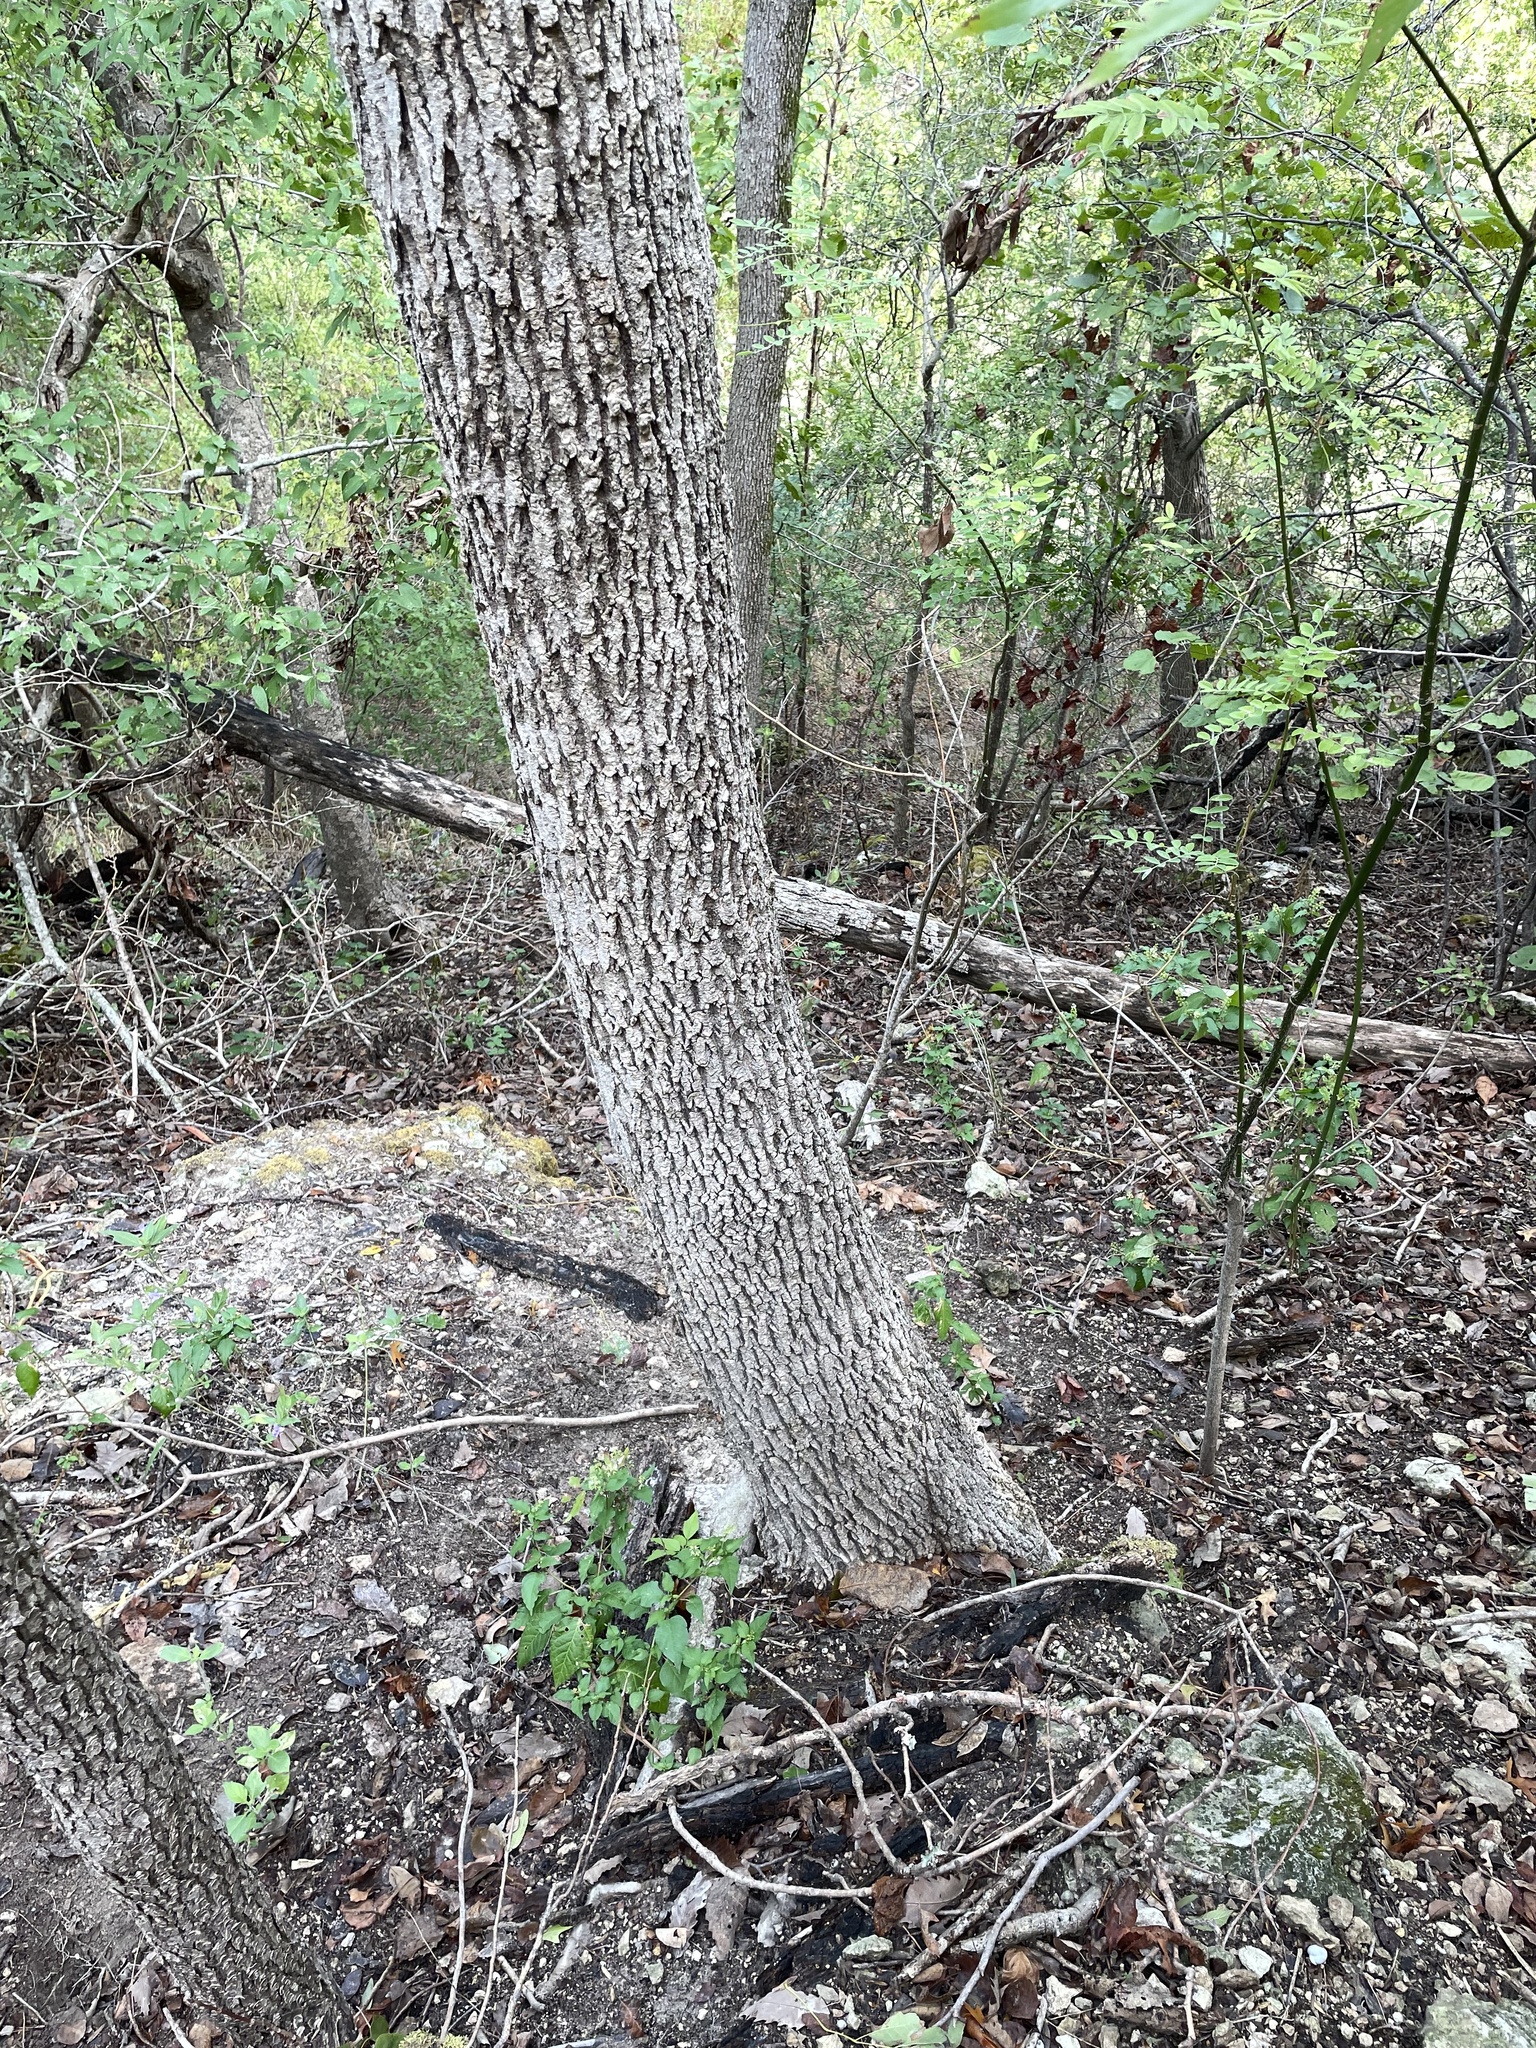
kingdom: Plantae
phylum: Tracheophyta
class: Magnoliopsida
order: Lamiales
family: Oleaceae
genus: Fraxinus
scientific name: Fraxinus albicans
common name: Texas ash
